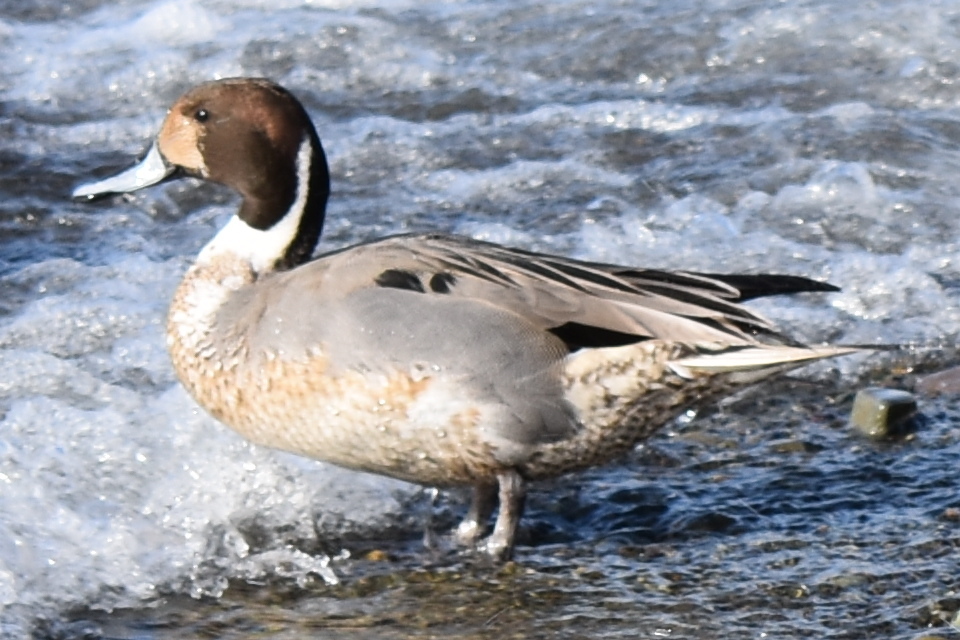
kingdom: Animalia
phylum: Chordata
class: Aves
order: Anseriformes
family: Anatidae
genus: Anas
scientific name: Anas acuta
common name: Northern pintail
